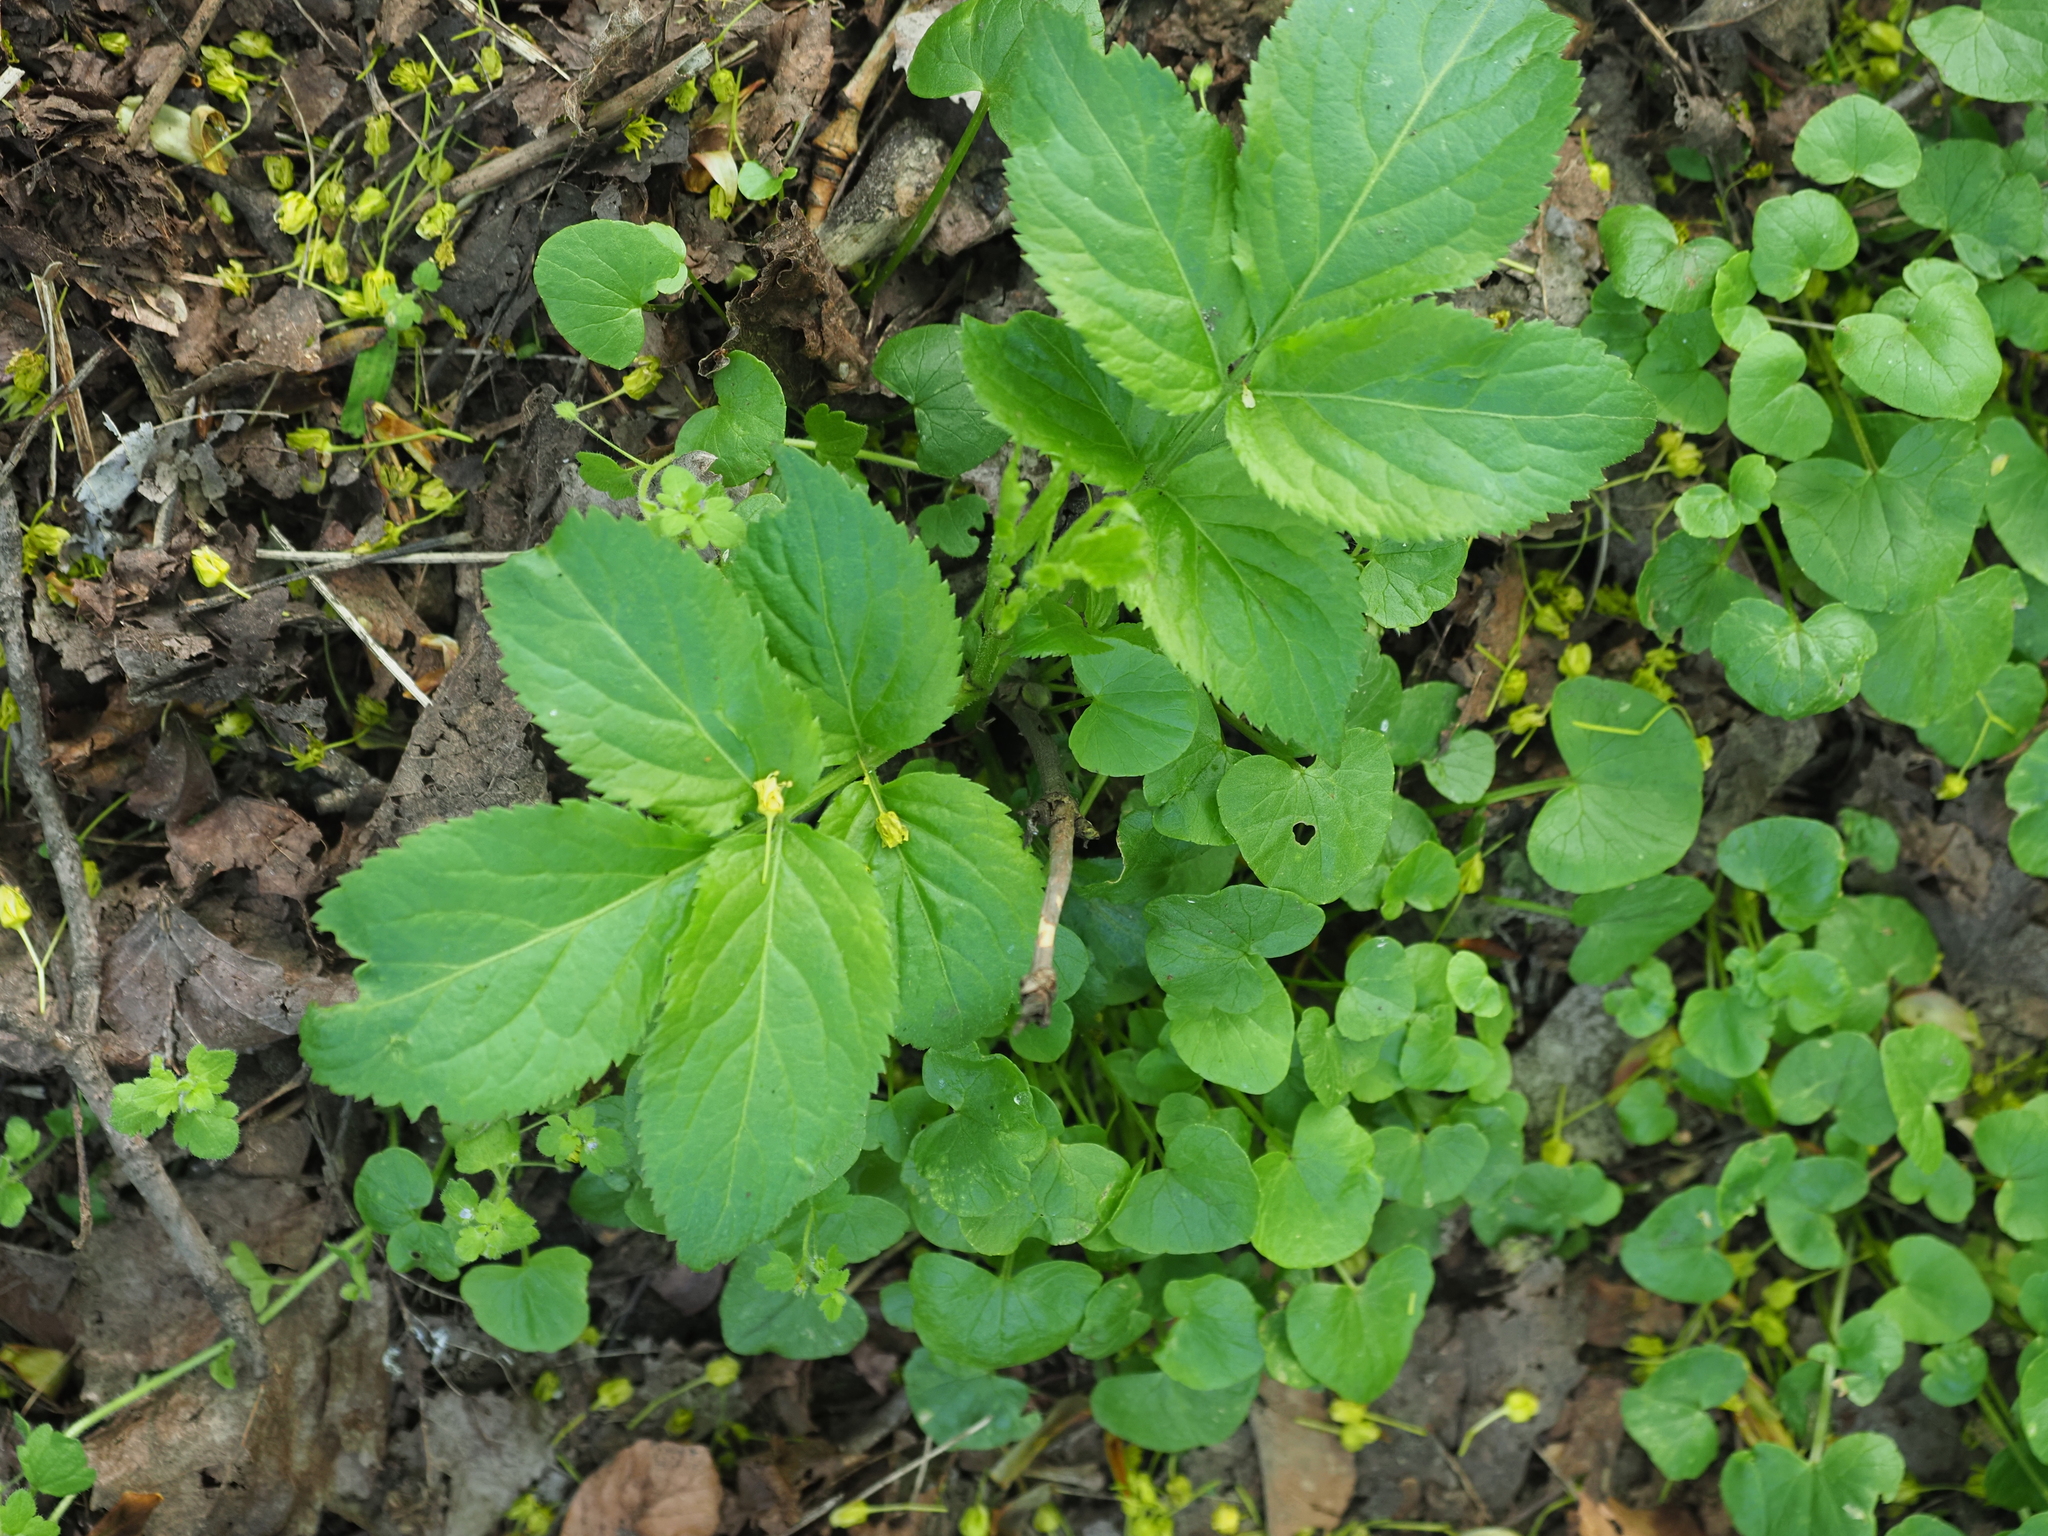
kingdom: Plantae
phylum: Tracheophyta
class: Magnoliopsida
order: Dipsacales
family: Viburnaceae
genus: Sambucus
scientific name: Sambucus nigra
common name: Elder
